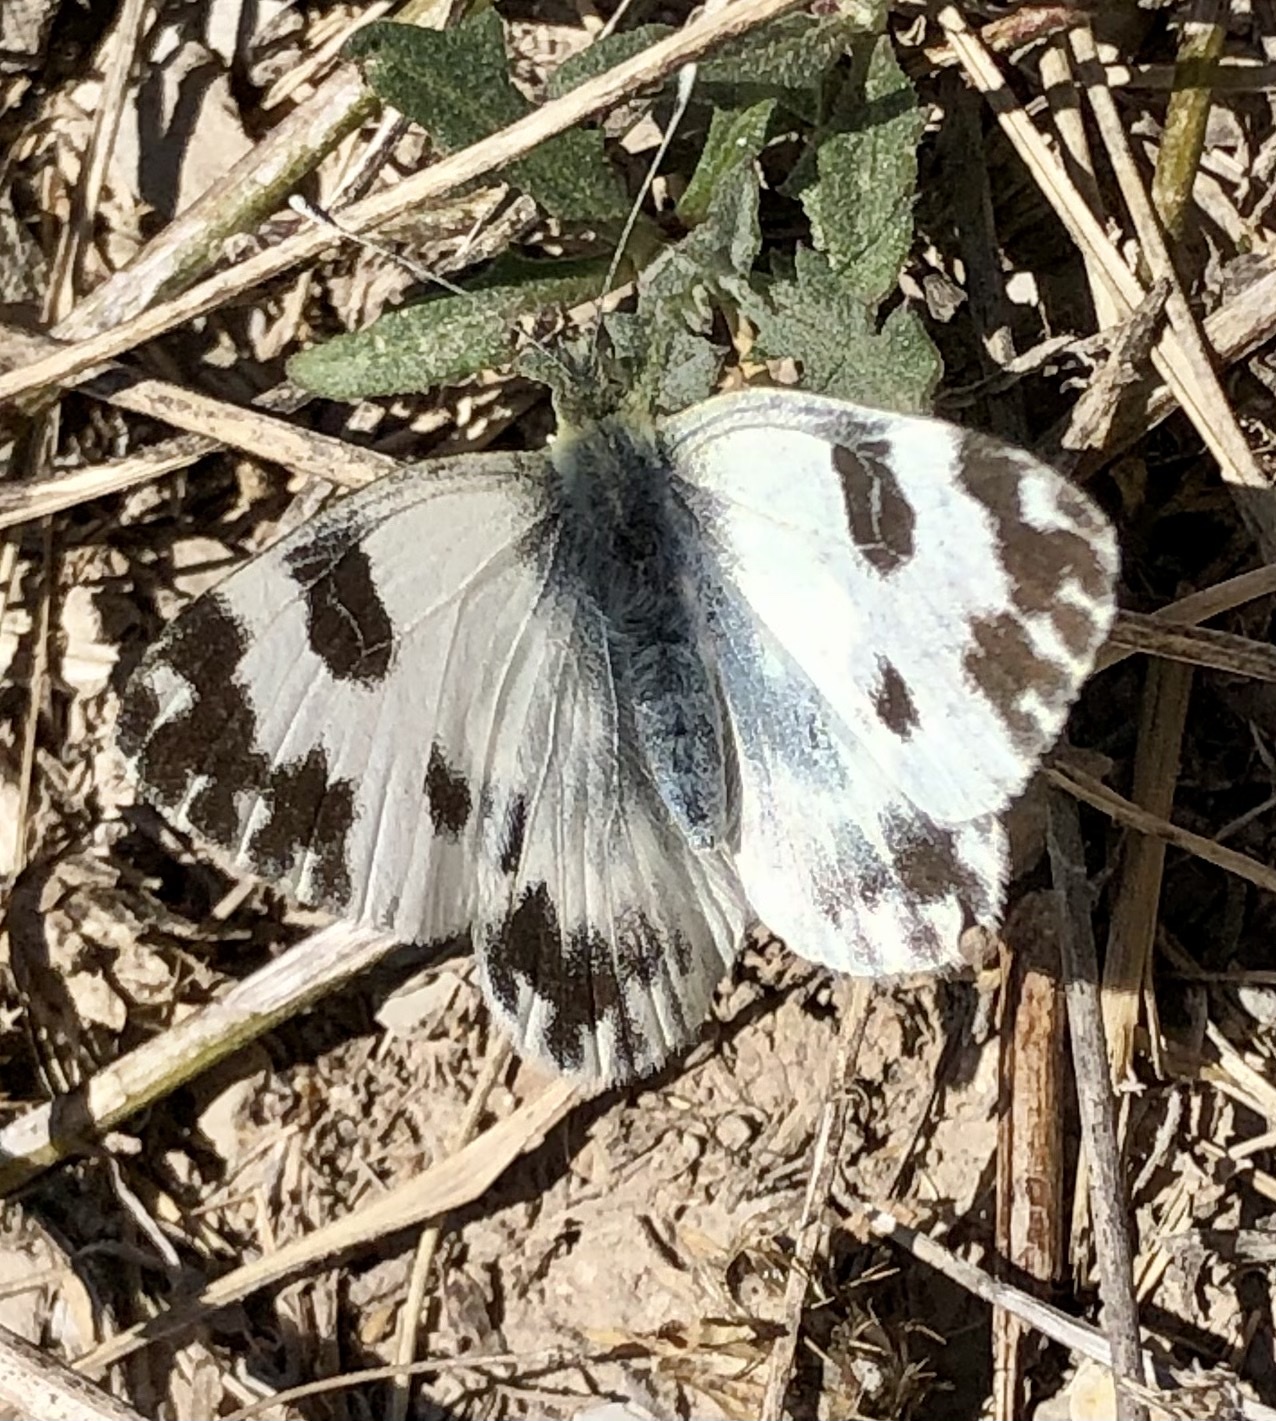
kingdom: Animalia
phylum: Arthropoda
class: Insecta
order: Lepidoptera
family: Pieridae
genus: Pontia
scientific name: Pontia daplidice
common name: Bath white
